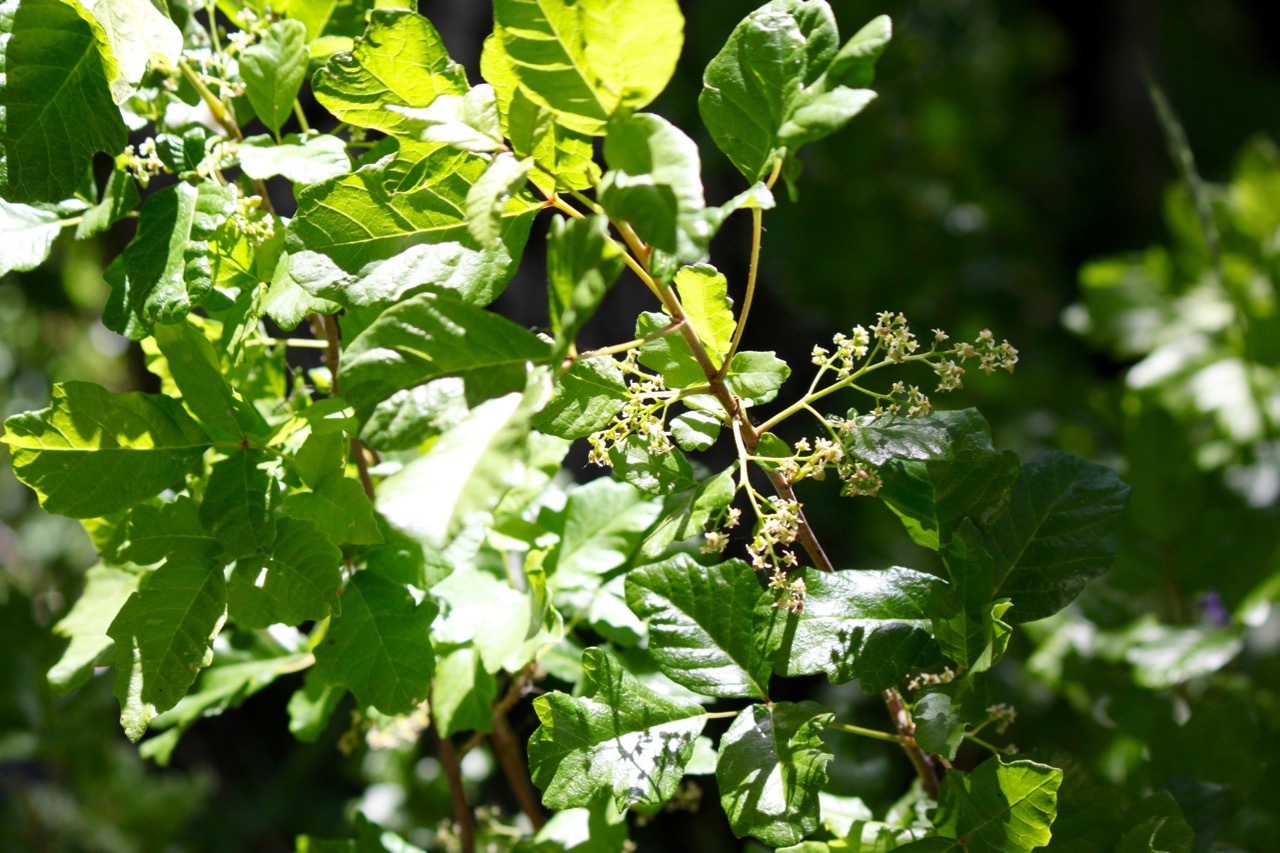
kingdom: Plantae
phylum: Tracheophyta
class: Magnoliopsida
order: Sapindales
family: Anacardiaceae
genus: Toxicodendron
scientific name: Toxicodendron diversilobum
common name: Pacific poison-oak
